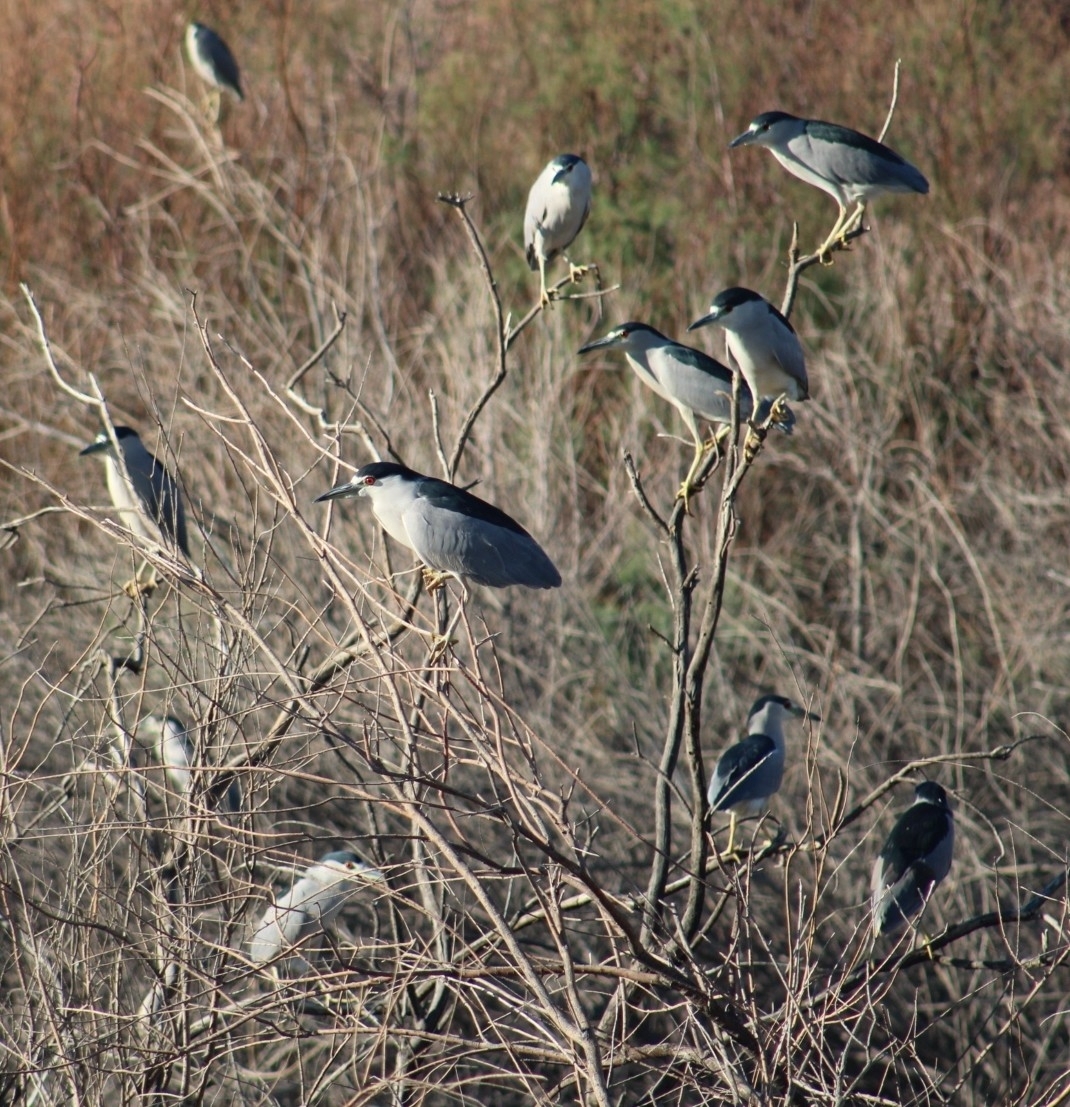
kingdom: Animalia
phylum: Chordata
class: Aves
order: Pelecaniformes
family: Ardeidae
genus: Nycticorax
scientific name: Nycticorax nycticorax
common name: Black-crowned night heron
